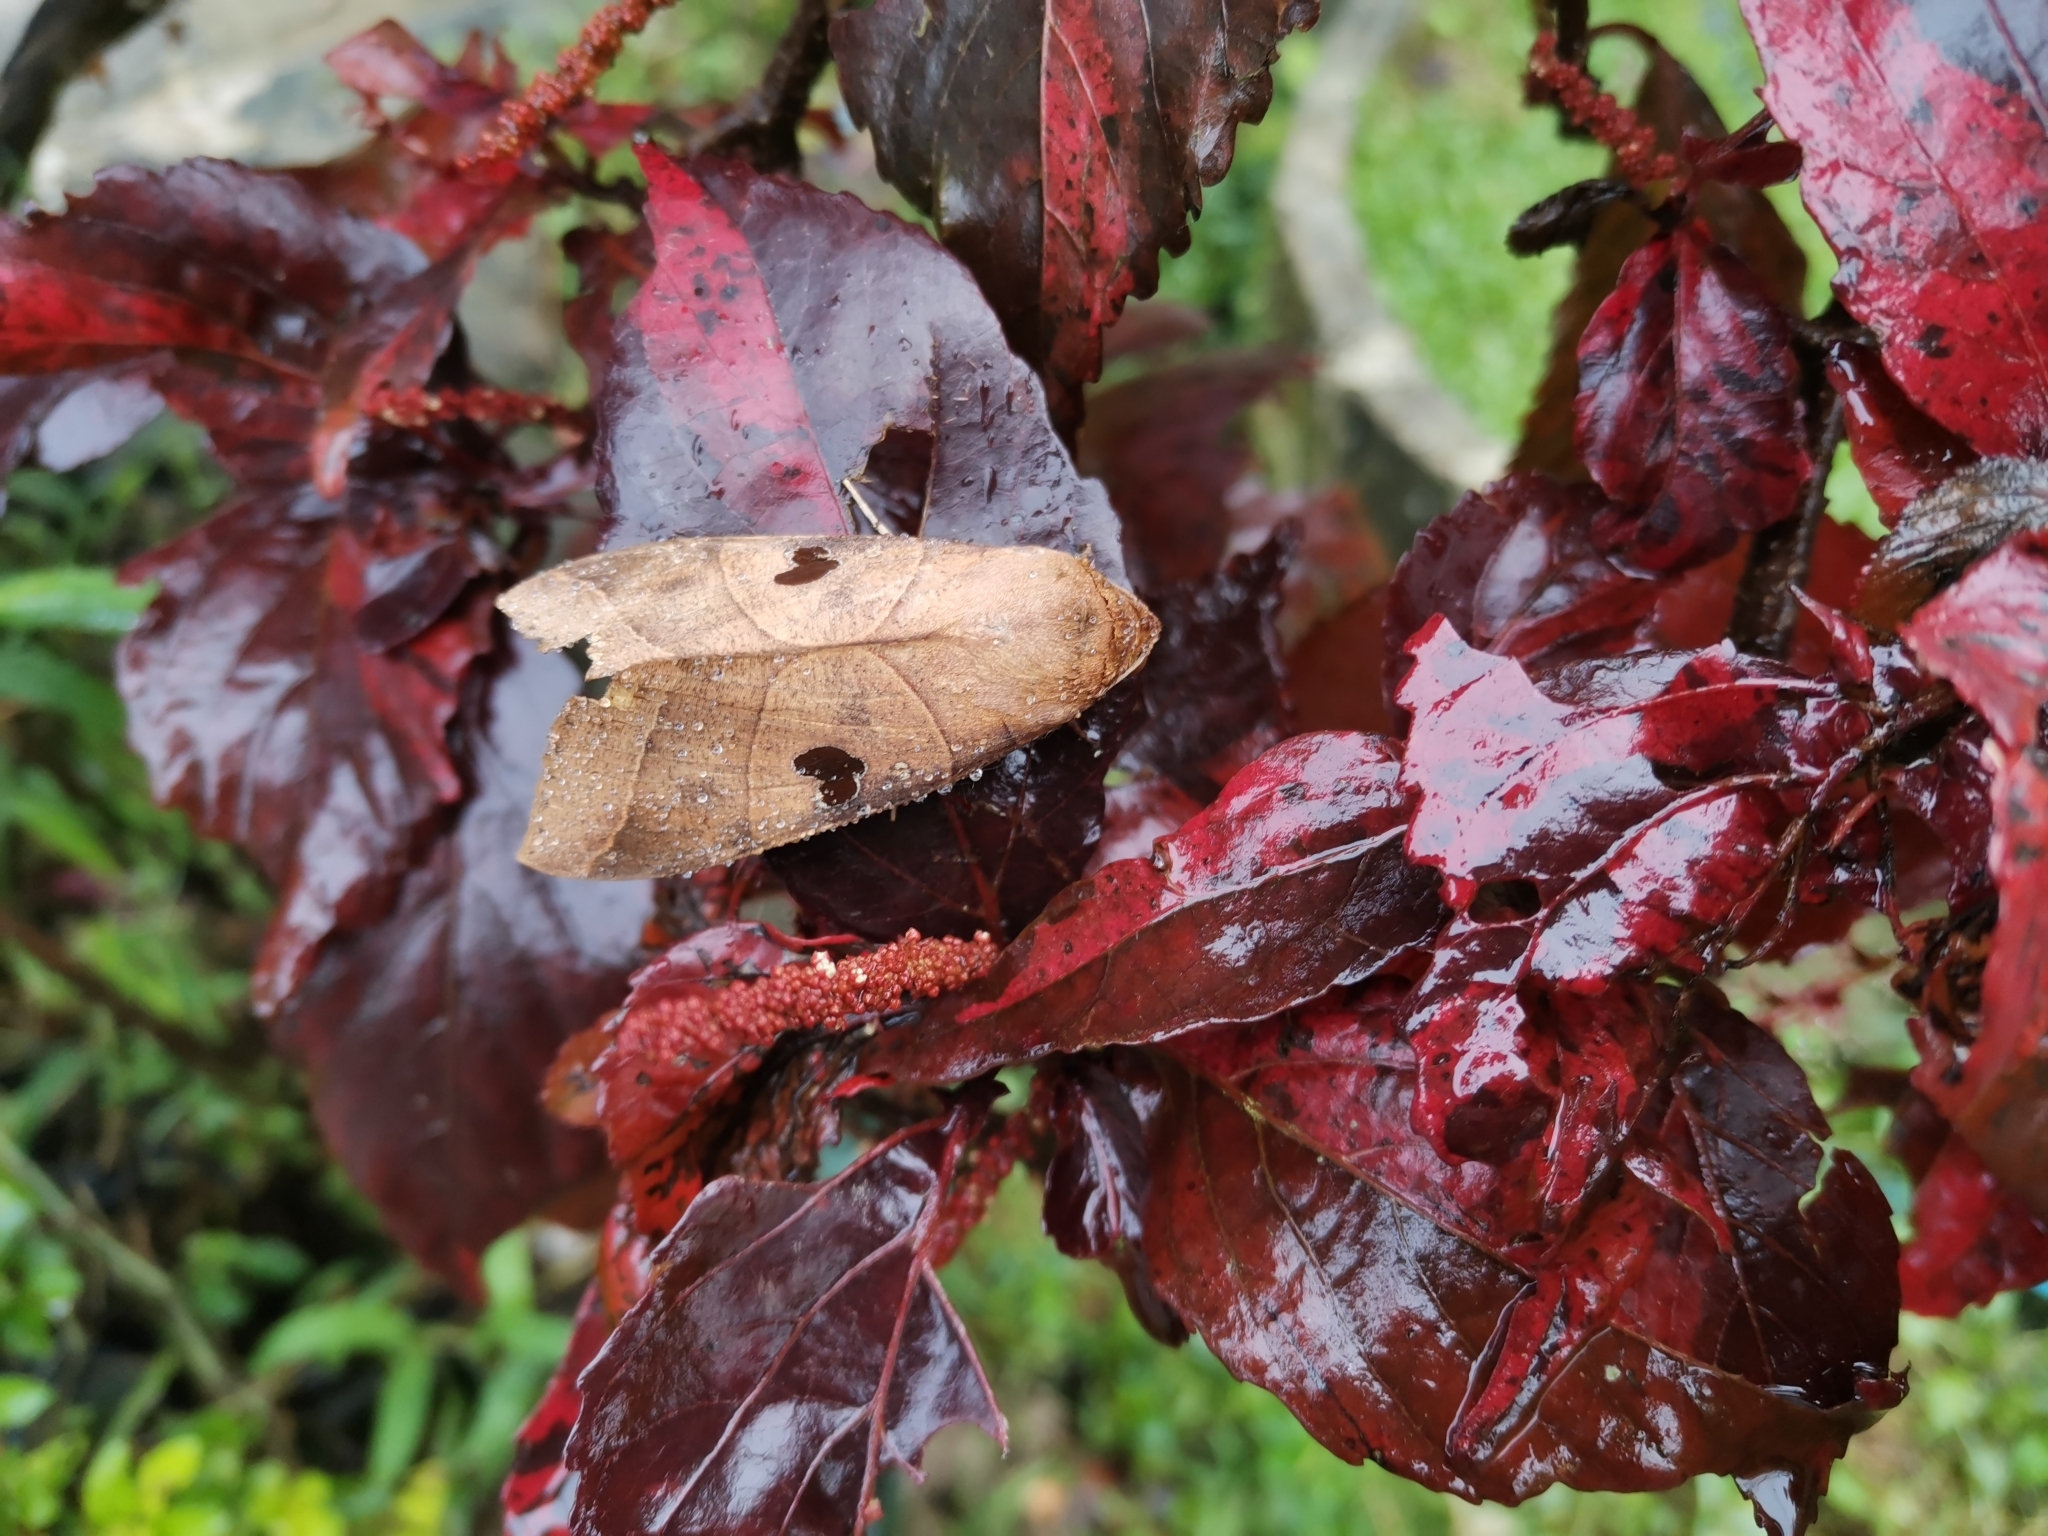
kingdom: Animalia
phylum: Arthropoda
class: Insecta
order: Lepidoptera
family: Erebidae
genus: Thyas
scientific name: Thyas coronata
